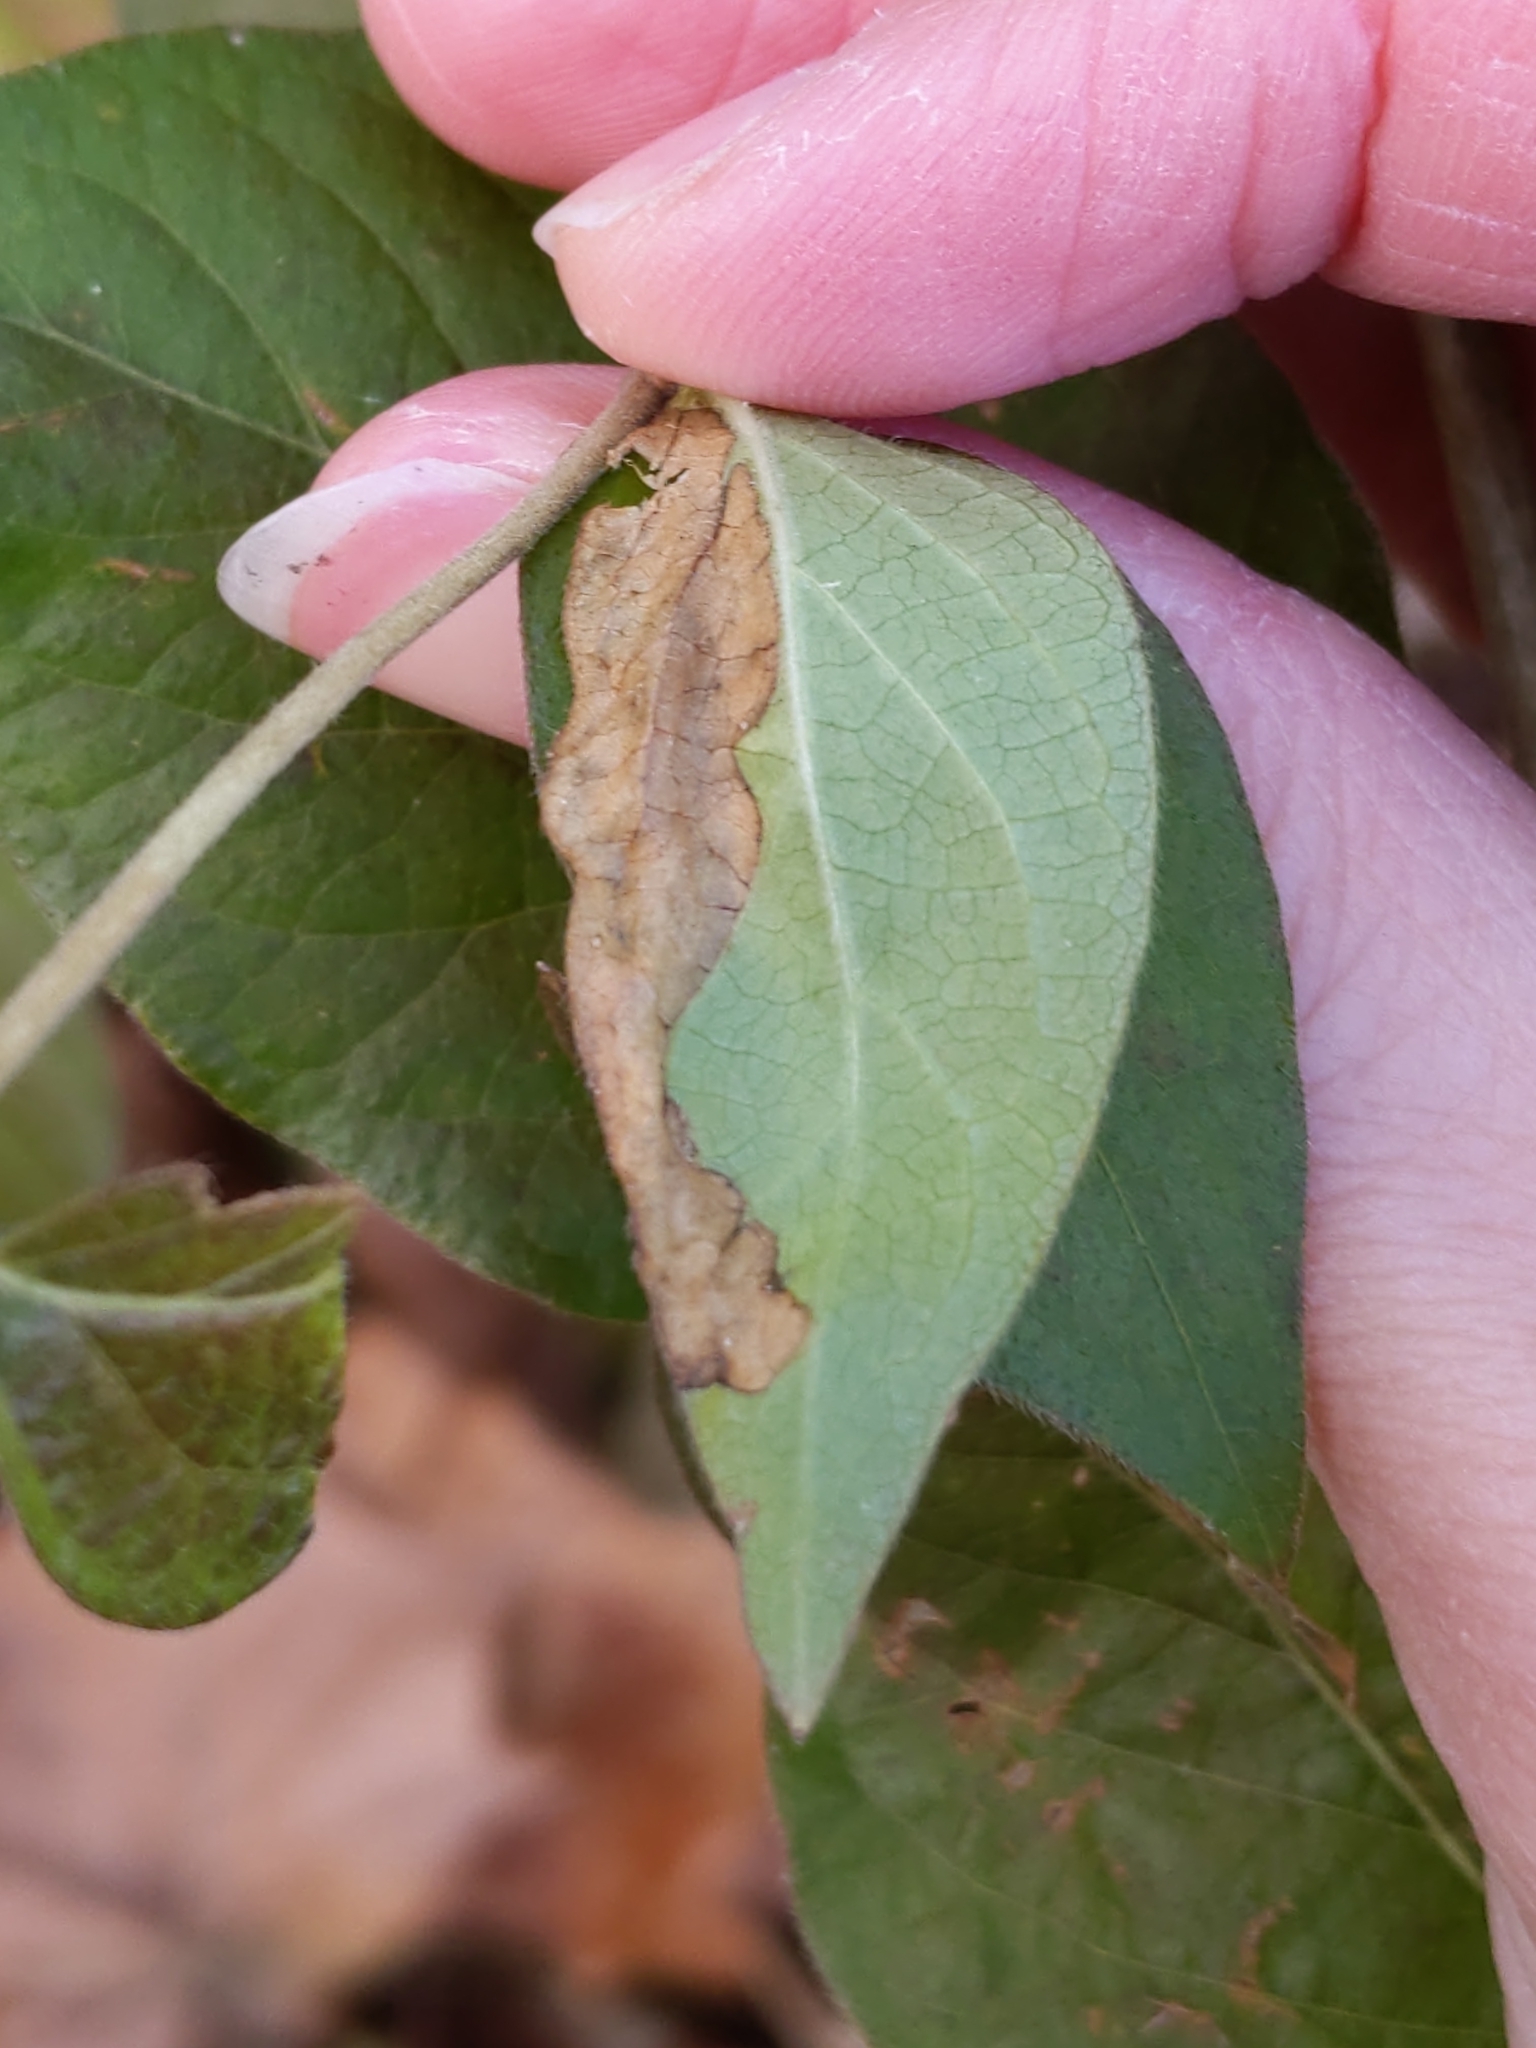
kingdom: Animalia
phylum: Arthropoda
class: Insecta
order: Diptera
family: Agromyzidae
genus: Aulagromyza
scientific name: Aulagromyza
